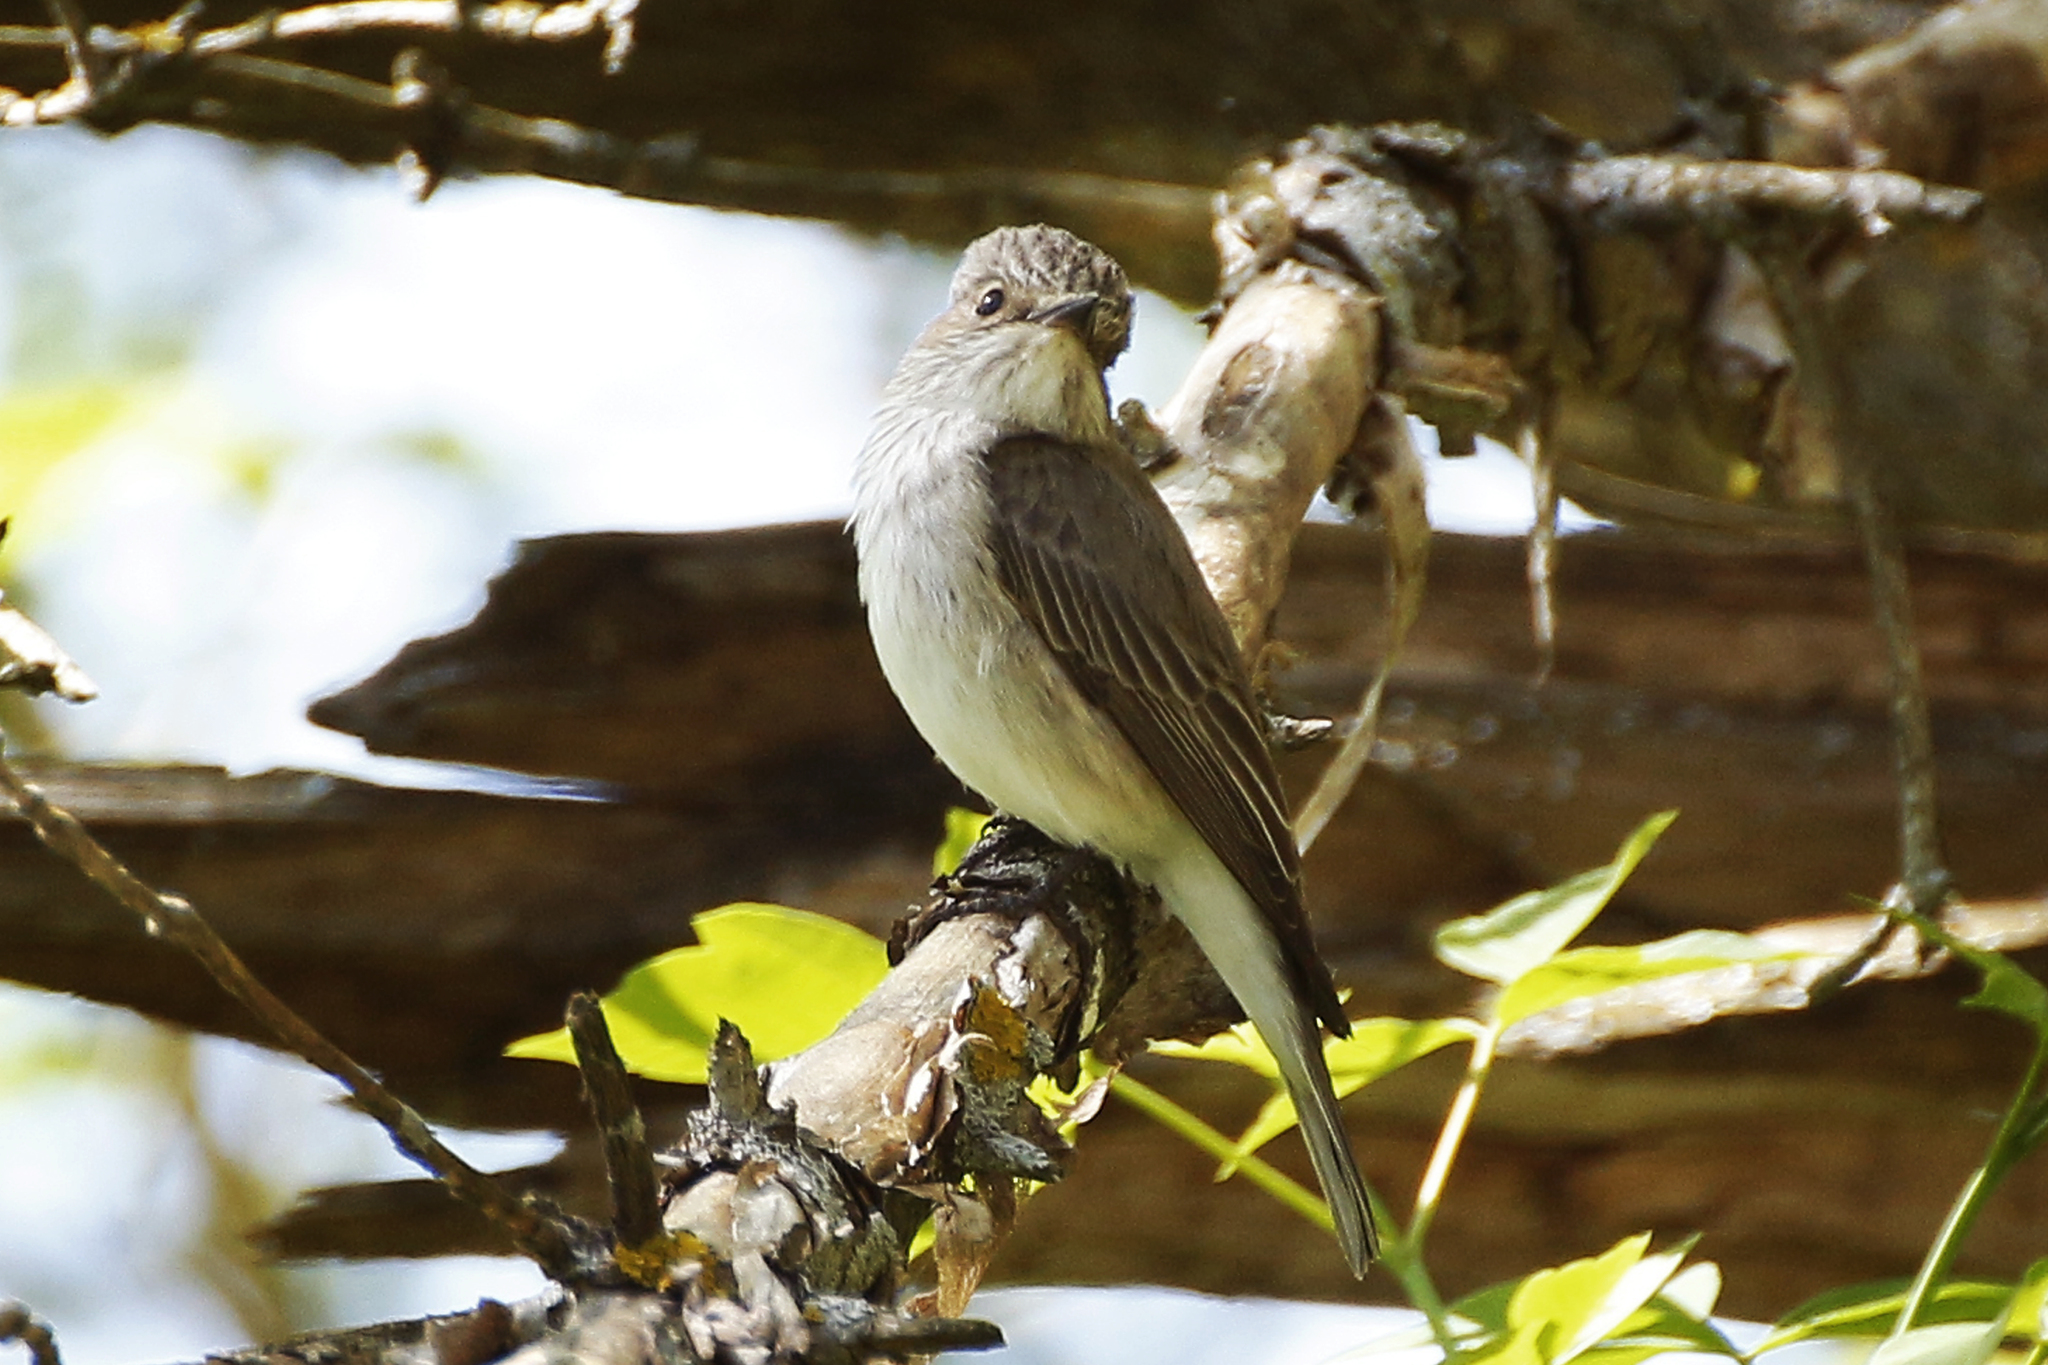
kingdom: Animalia
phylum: Chordata
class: Aves
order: Passeriformes
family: Muscicapidae
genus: Muscicapa
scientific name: Muscicapa striata
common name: Spotted flycatcher
